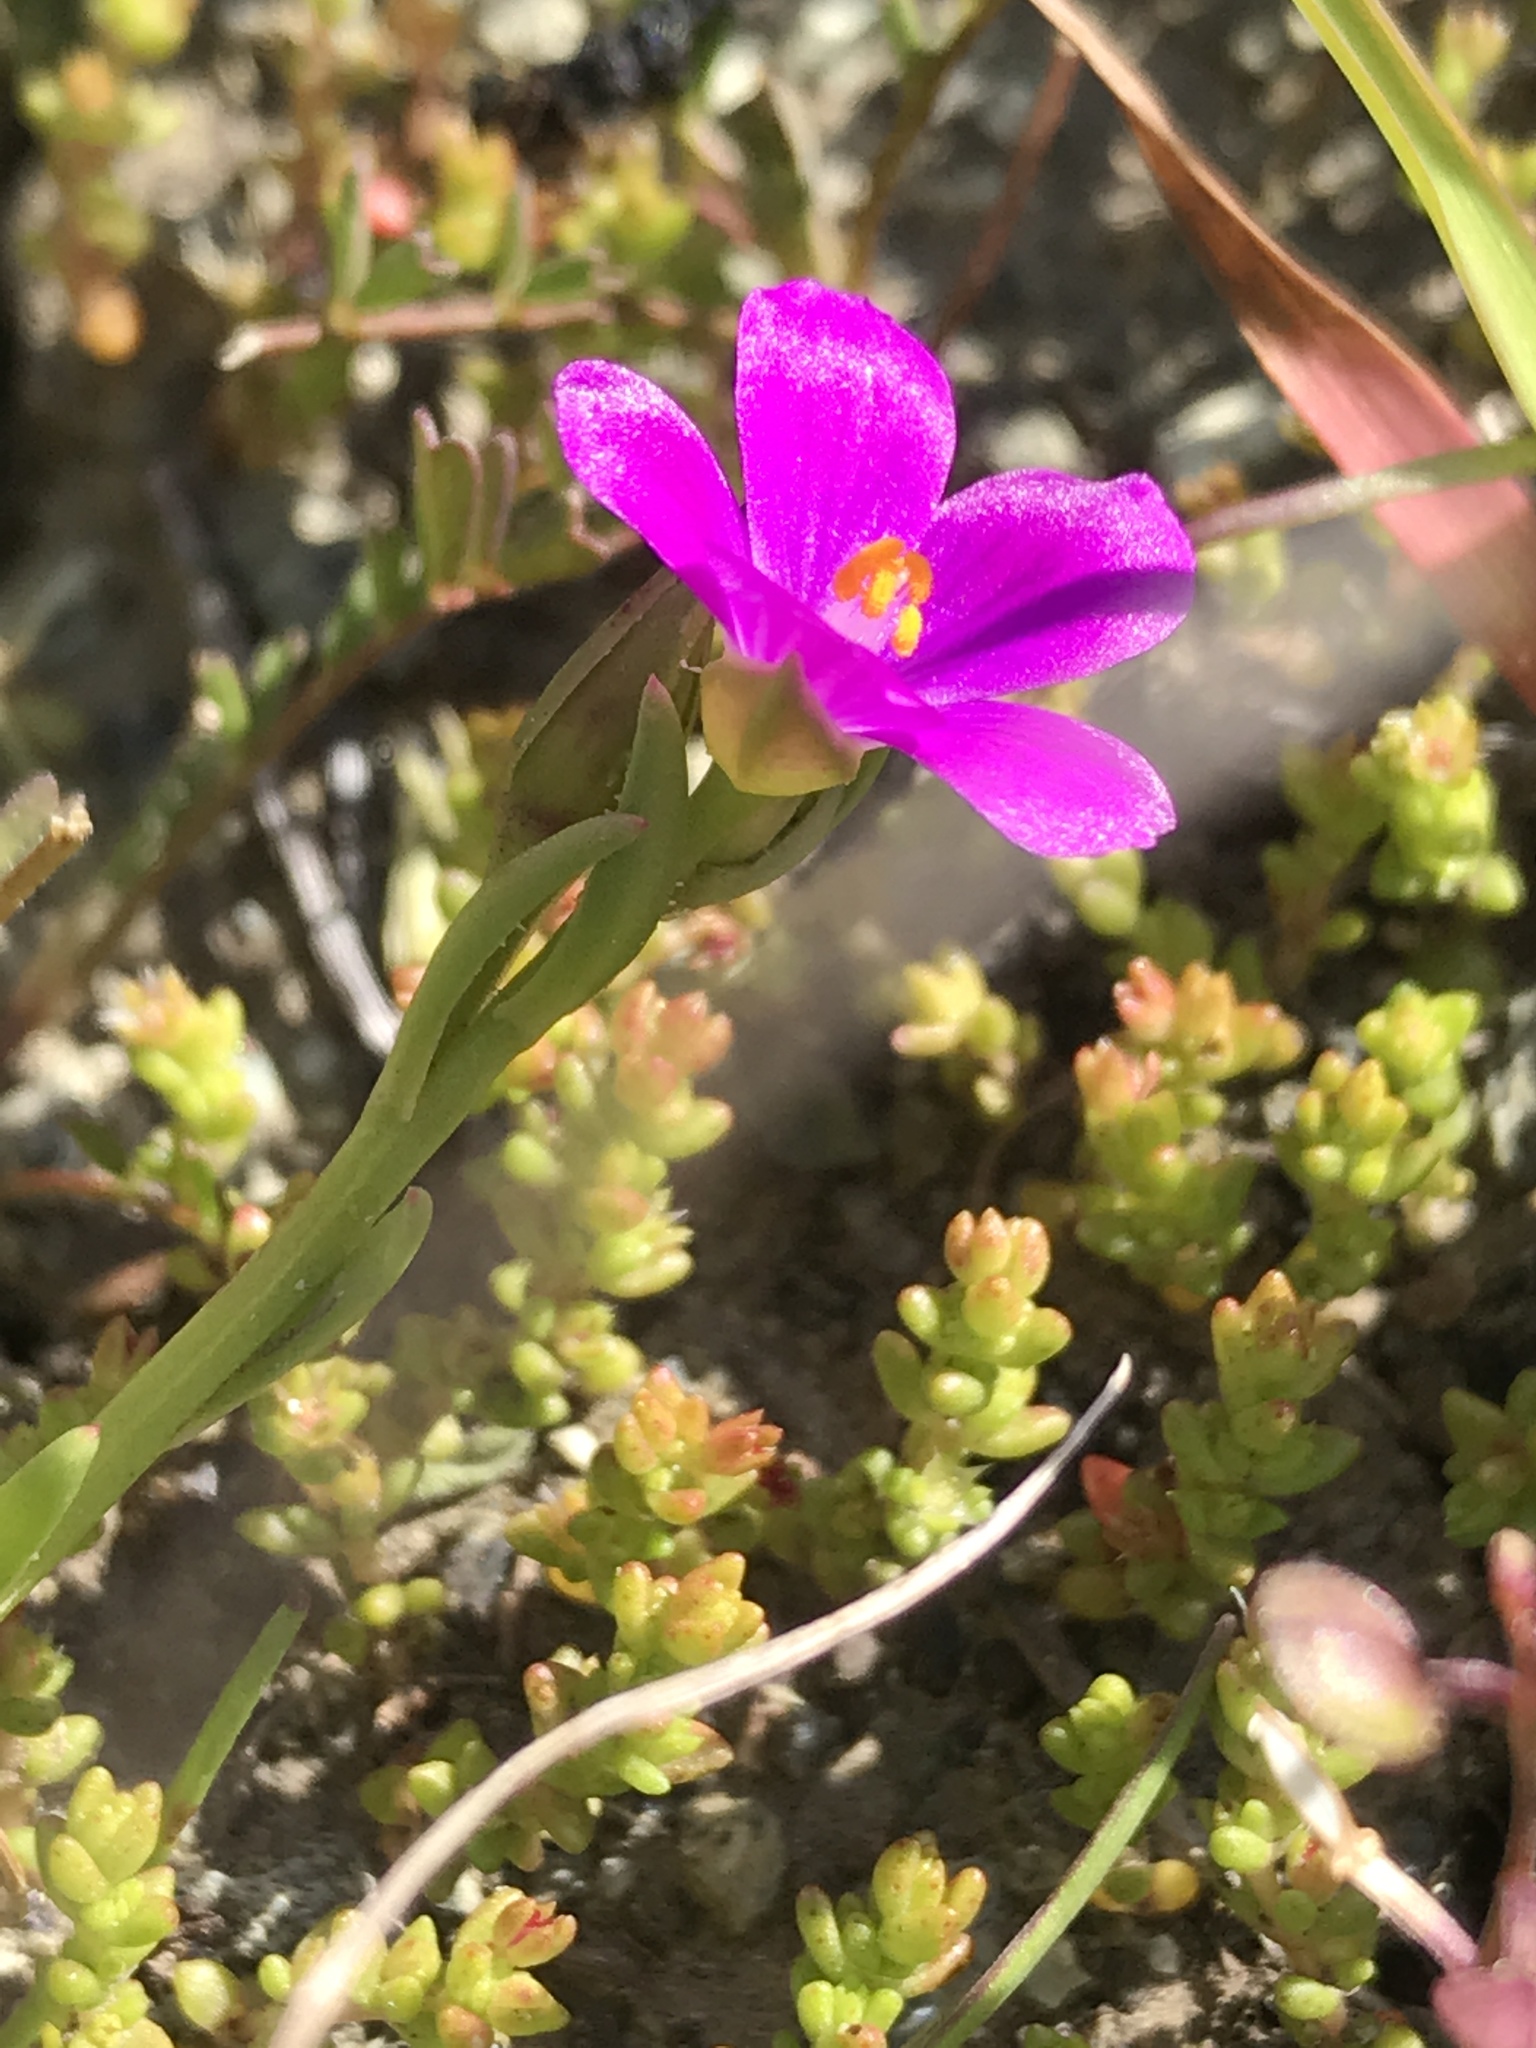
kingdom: Plantae
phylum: Tracheophyta
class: Magnoliopsida
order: Caryophyllales
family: Montiaceae
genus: Calandrinia
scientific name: Calandrinia menziesii
